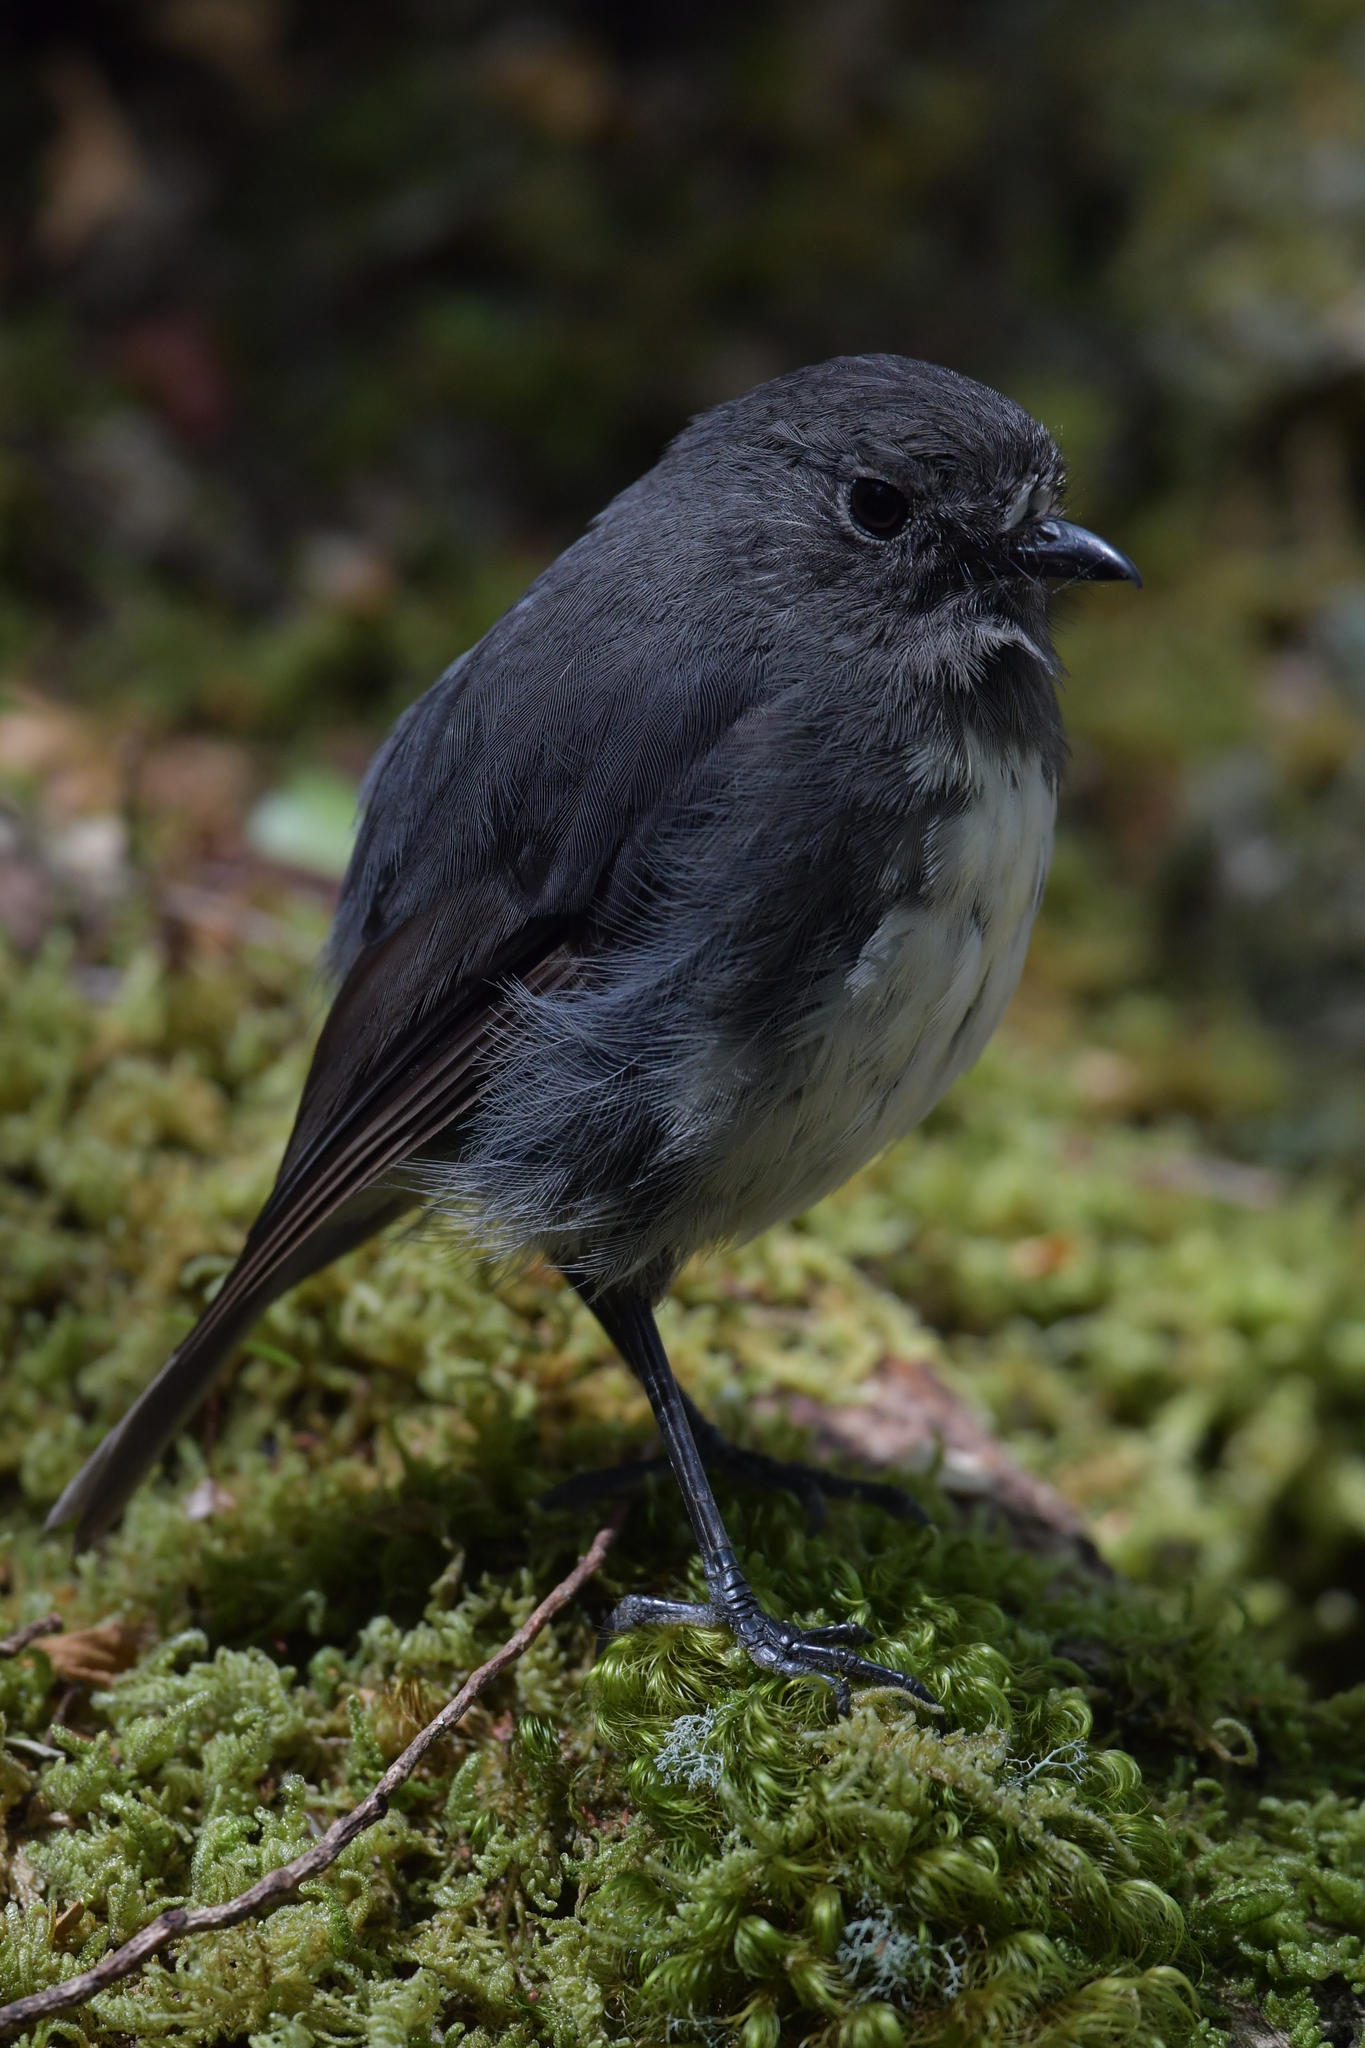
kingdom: Animalia
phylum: Chordata
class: Aves
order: Passeriformes
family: Petroicidae
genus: Petroica
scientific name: Petroica australis
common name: New zealand robin
